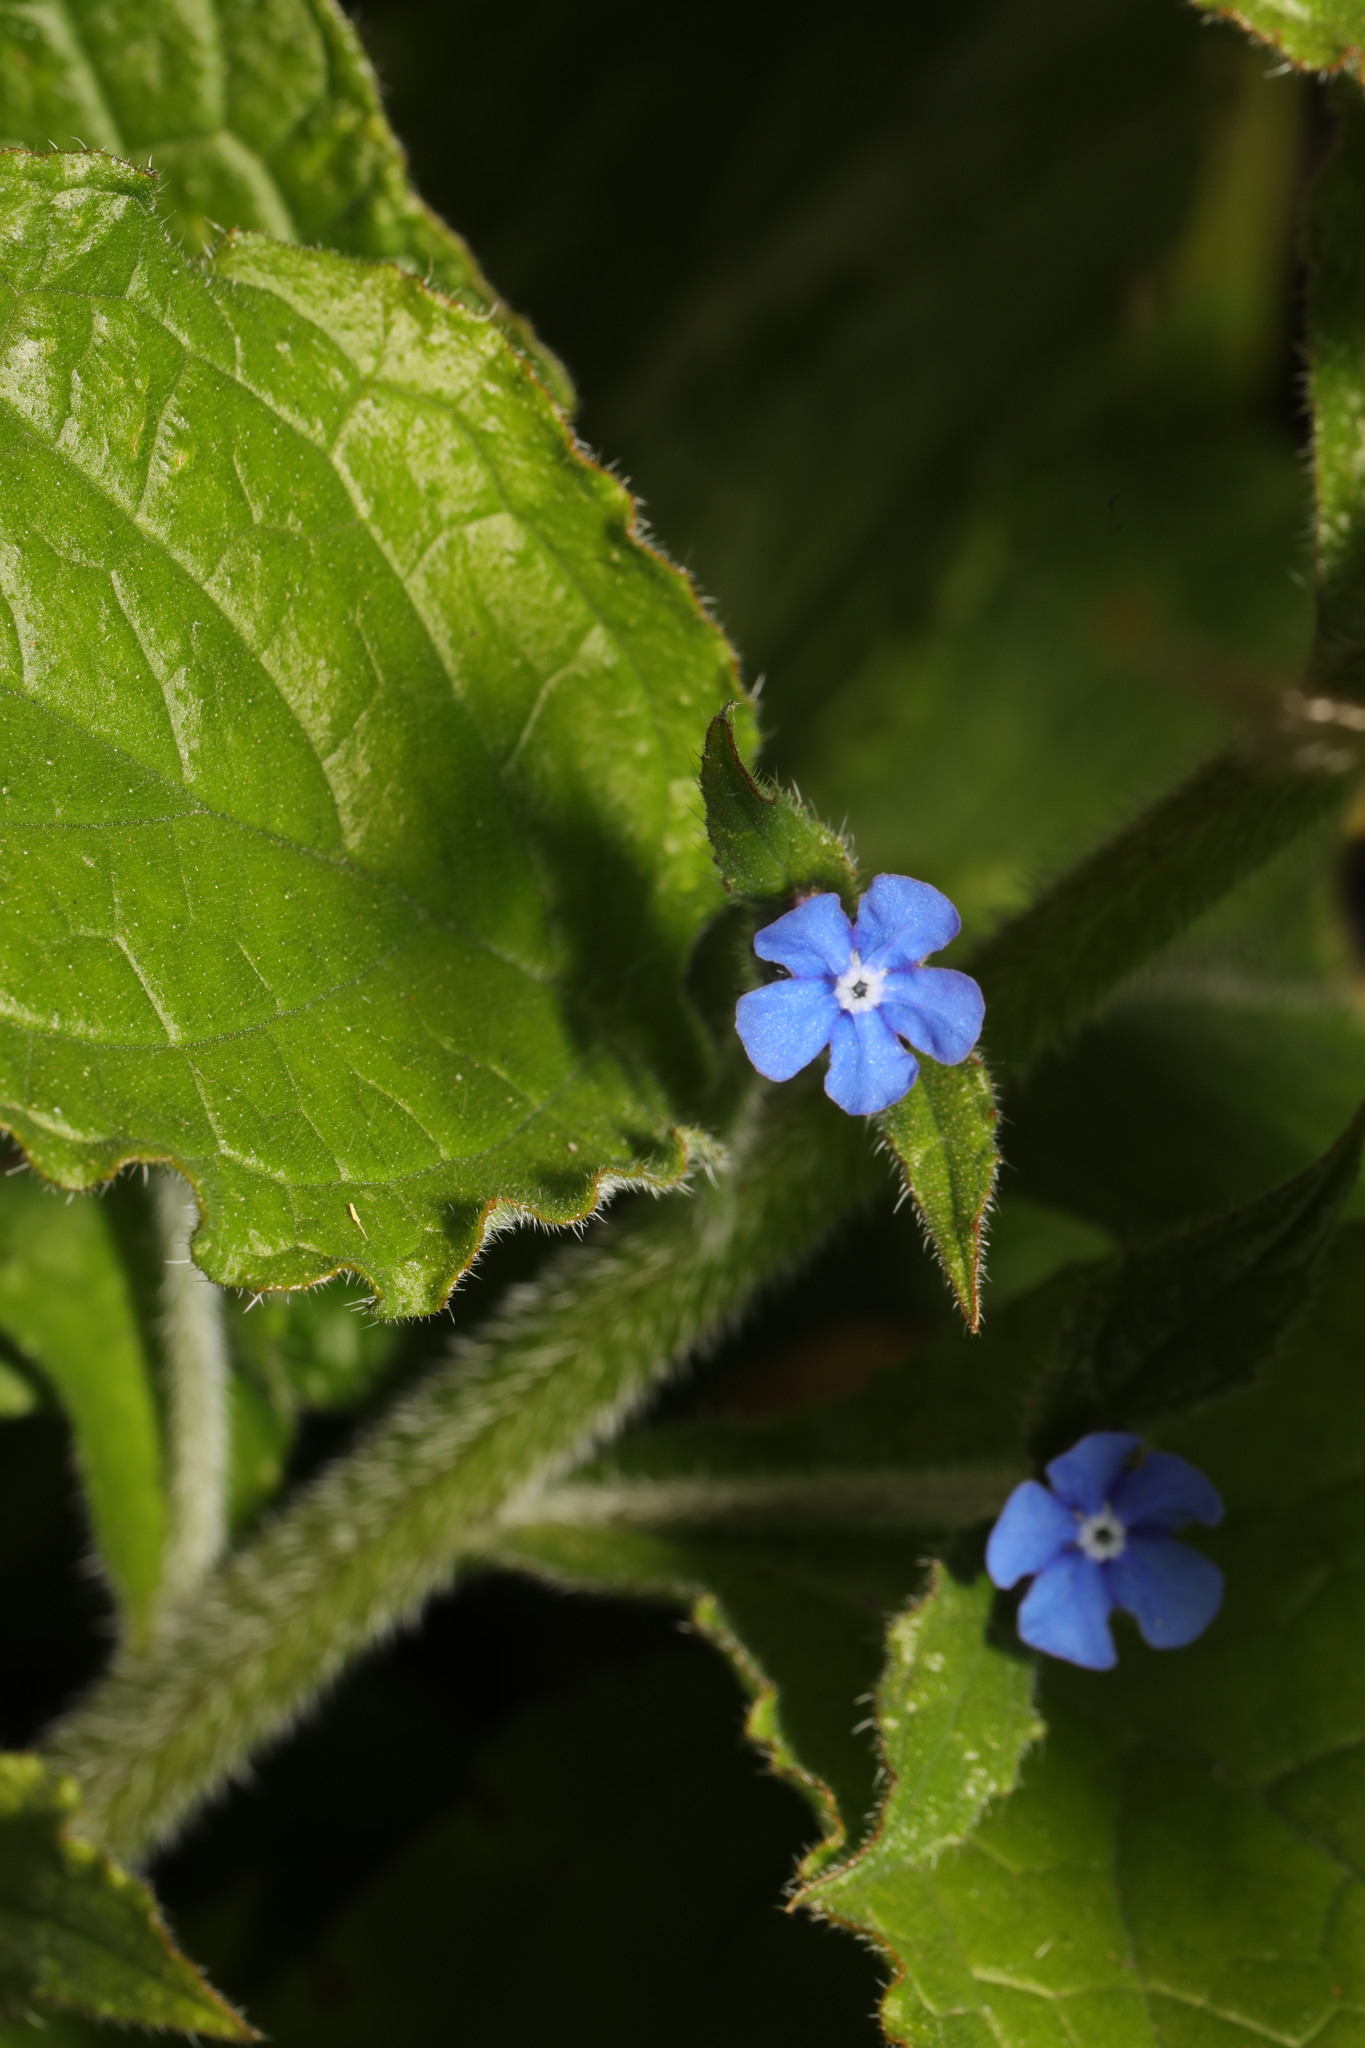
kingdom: Plantae
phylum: Tracheophyta
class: Magnoliopsida
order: Boraginales
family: Boraginaceae
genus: Pentaglottis
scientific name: Pentaglottis sempervirens
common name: Green alkanet
